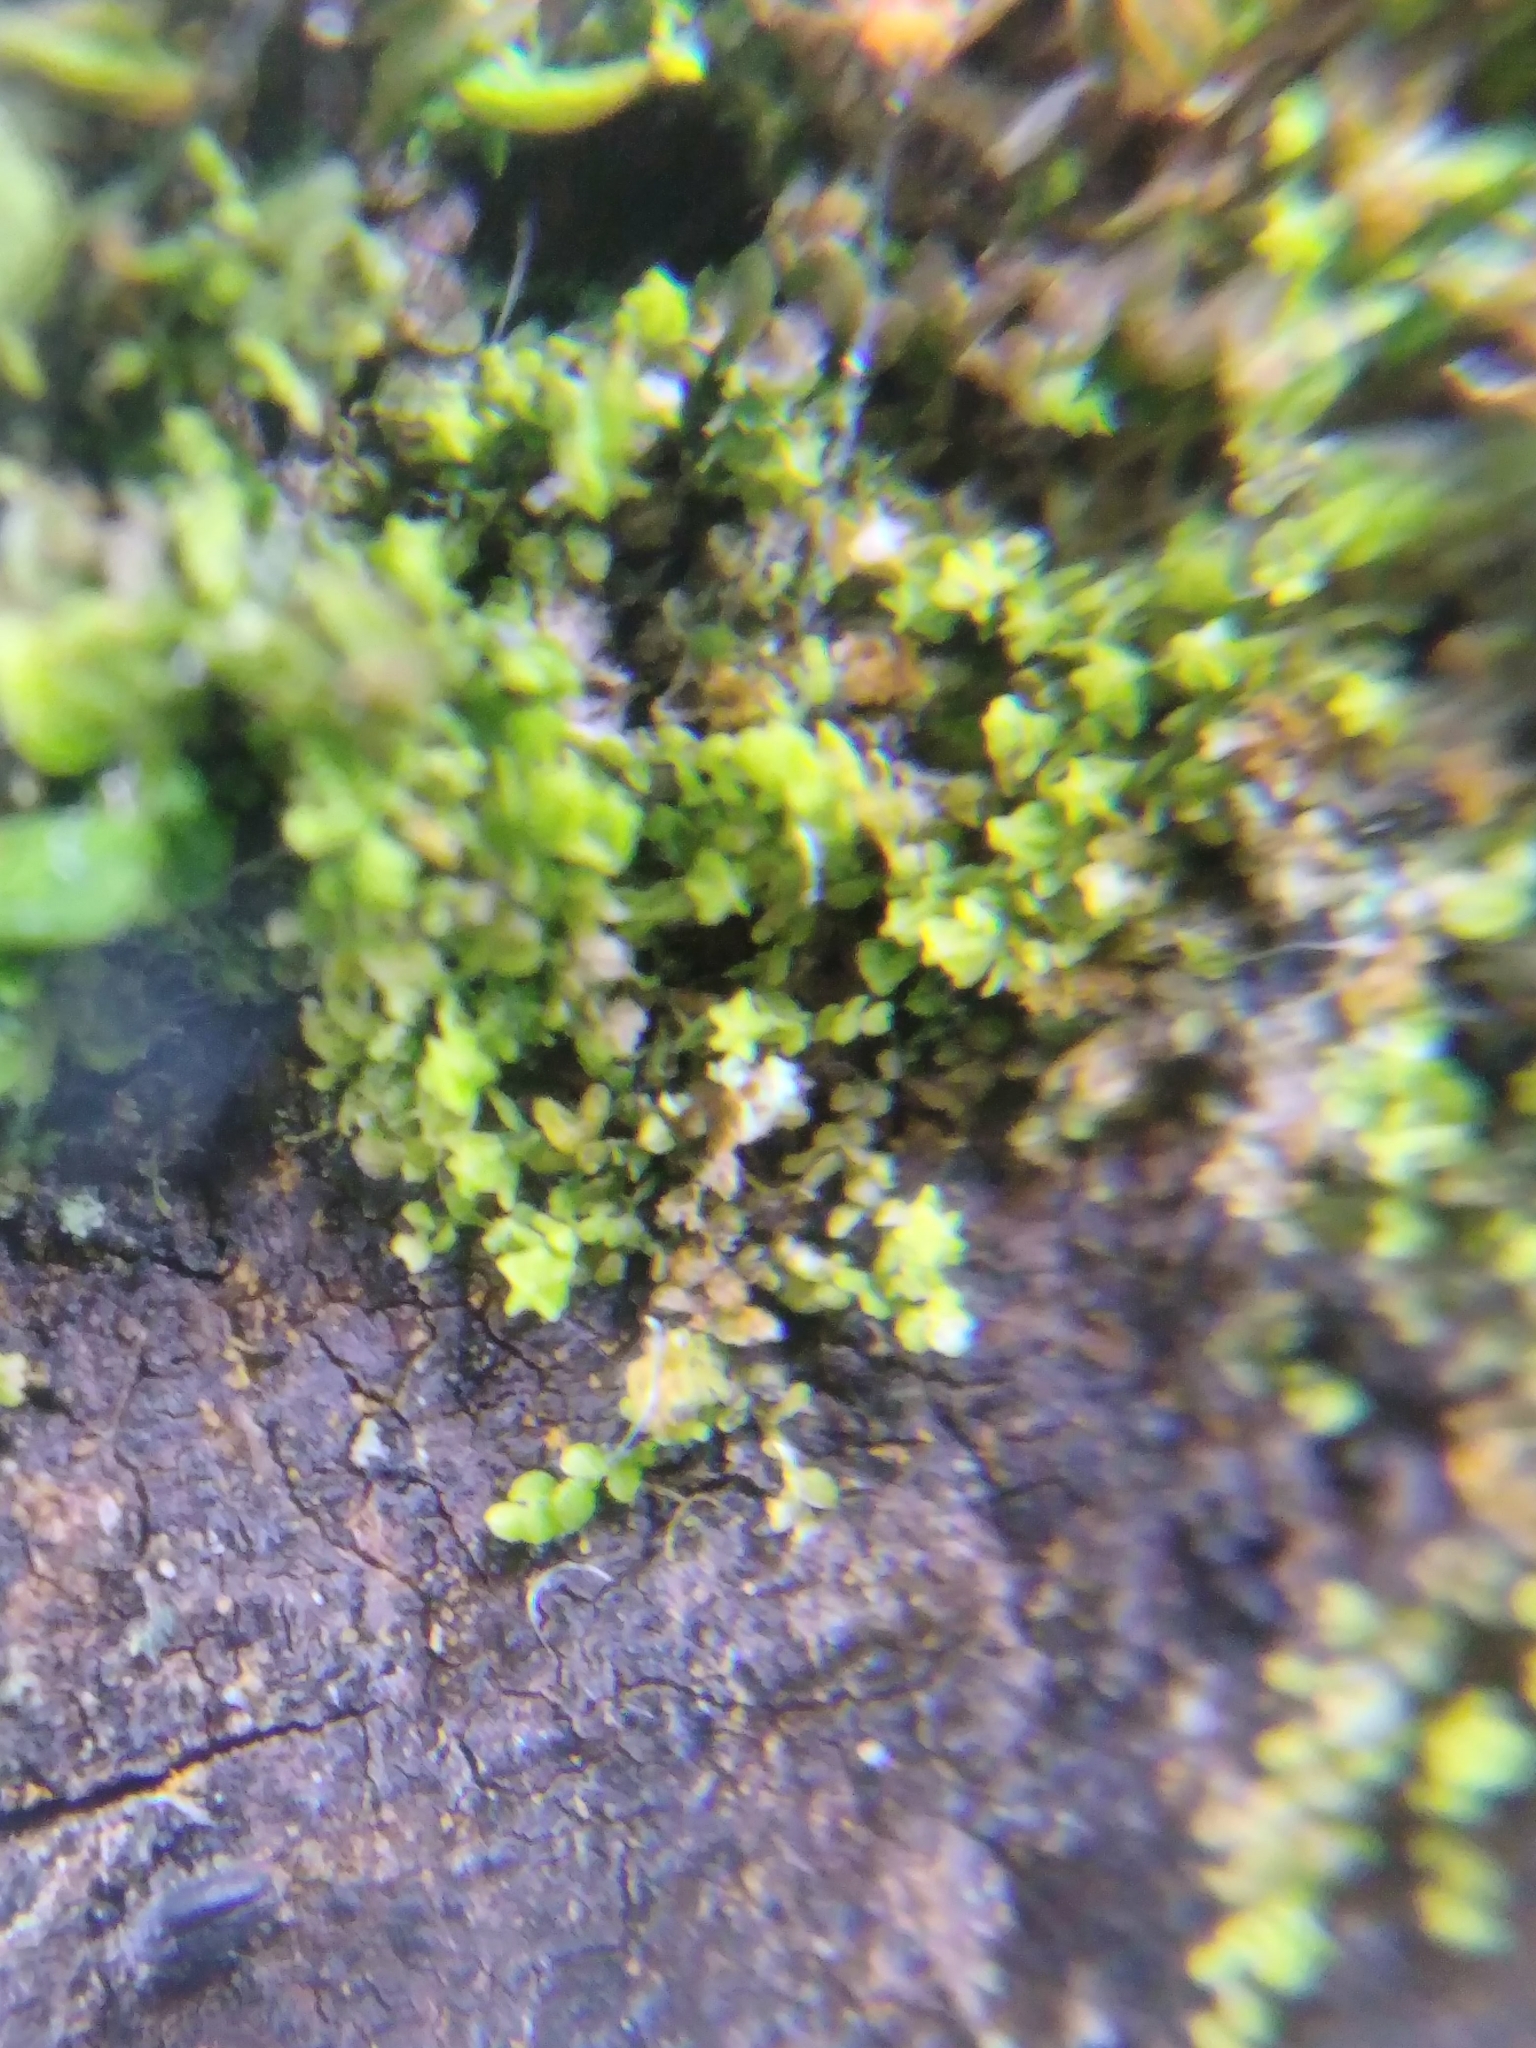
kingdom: Plantae
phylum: Marchantiophyta
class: Jungermanniopsida
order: Porellales
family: Lejeuneaceae
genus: Myriocoleopsis
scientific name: Myriocoleopsis minutissima
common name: Minute pouncewort
